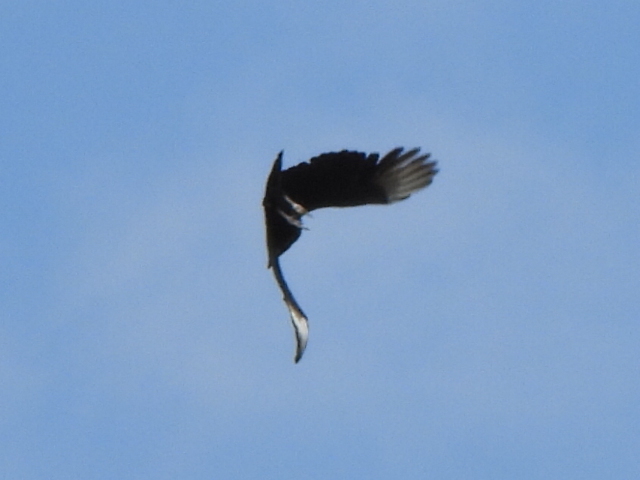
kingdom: Animalia
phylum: Chordata
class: Aves
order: Accipitriformes
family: Cathartidae
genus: Coragyps
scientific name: Coragyps atratus
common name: Black vulture
